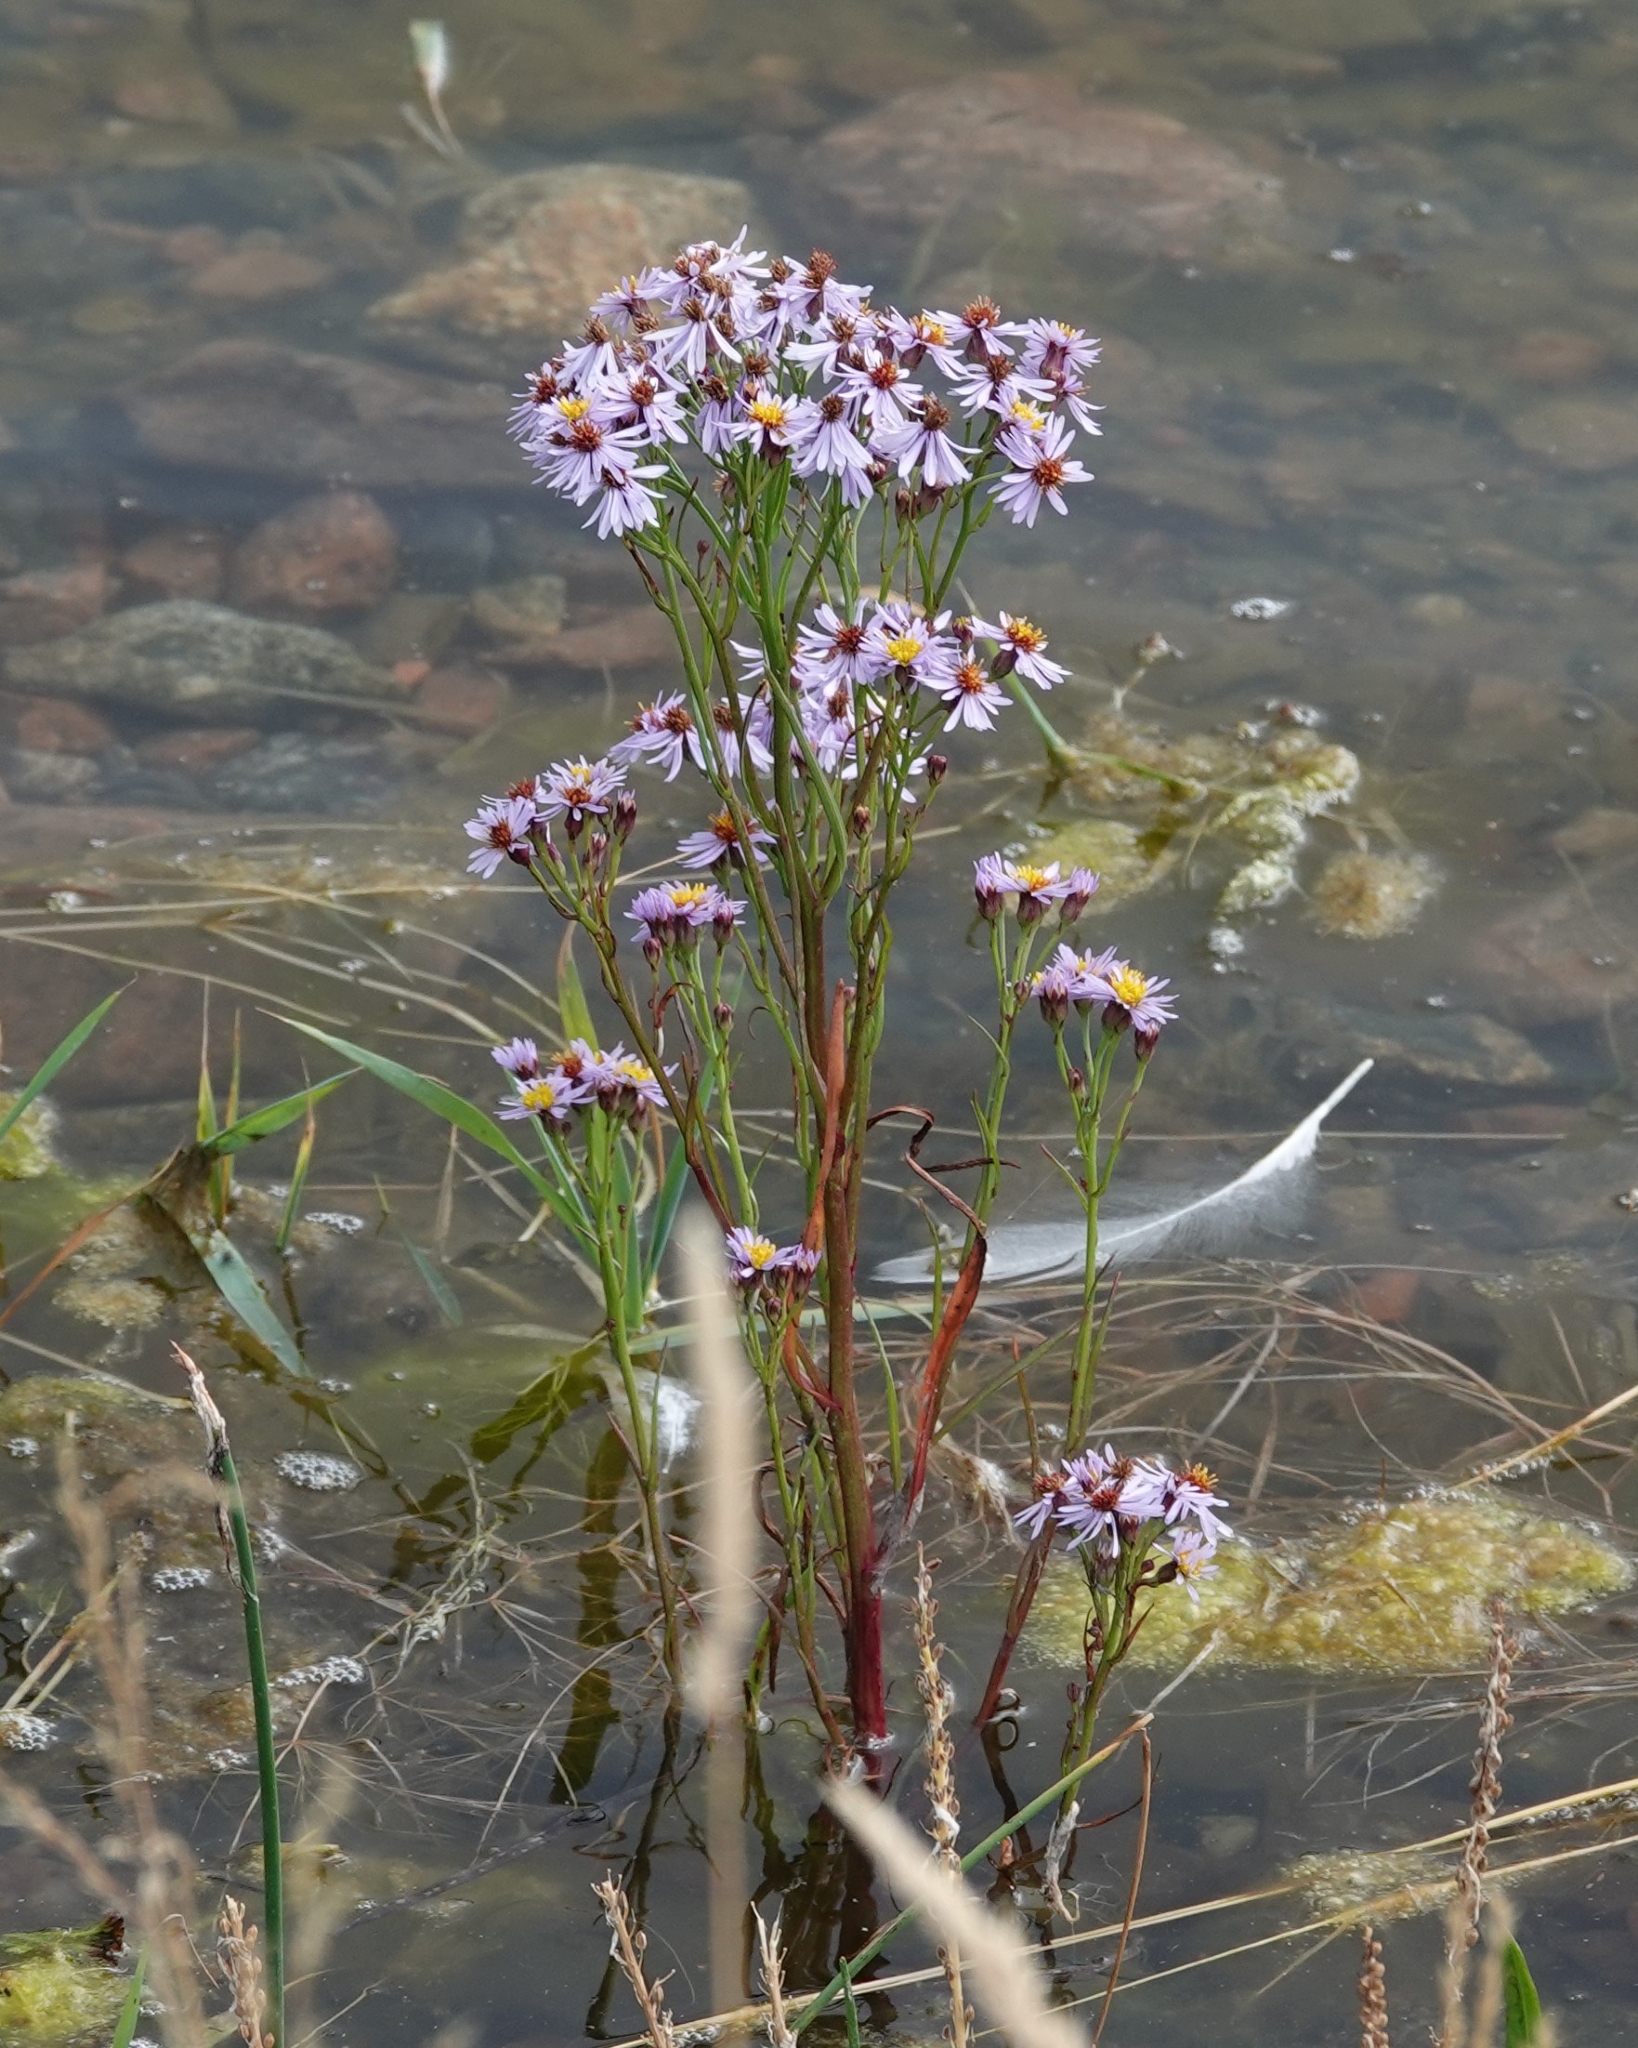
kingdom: Plantae
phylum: Tracheophyta
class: Magnoliopsida
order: Asterales
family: Asteraceae
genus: Tripolium
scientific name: Tripolium pannonicum
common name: Sea aster
